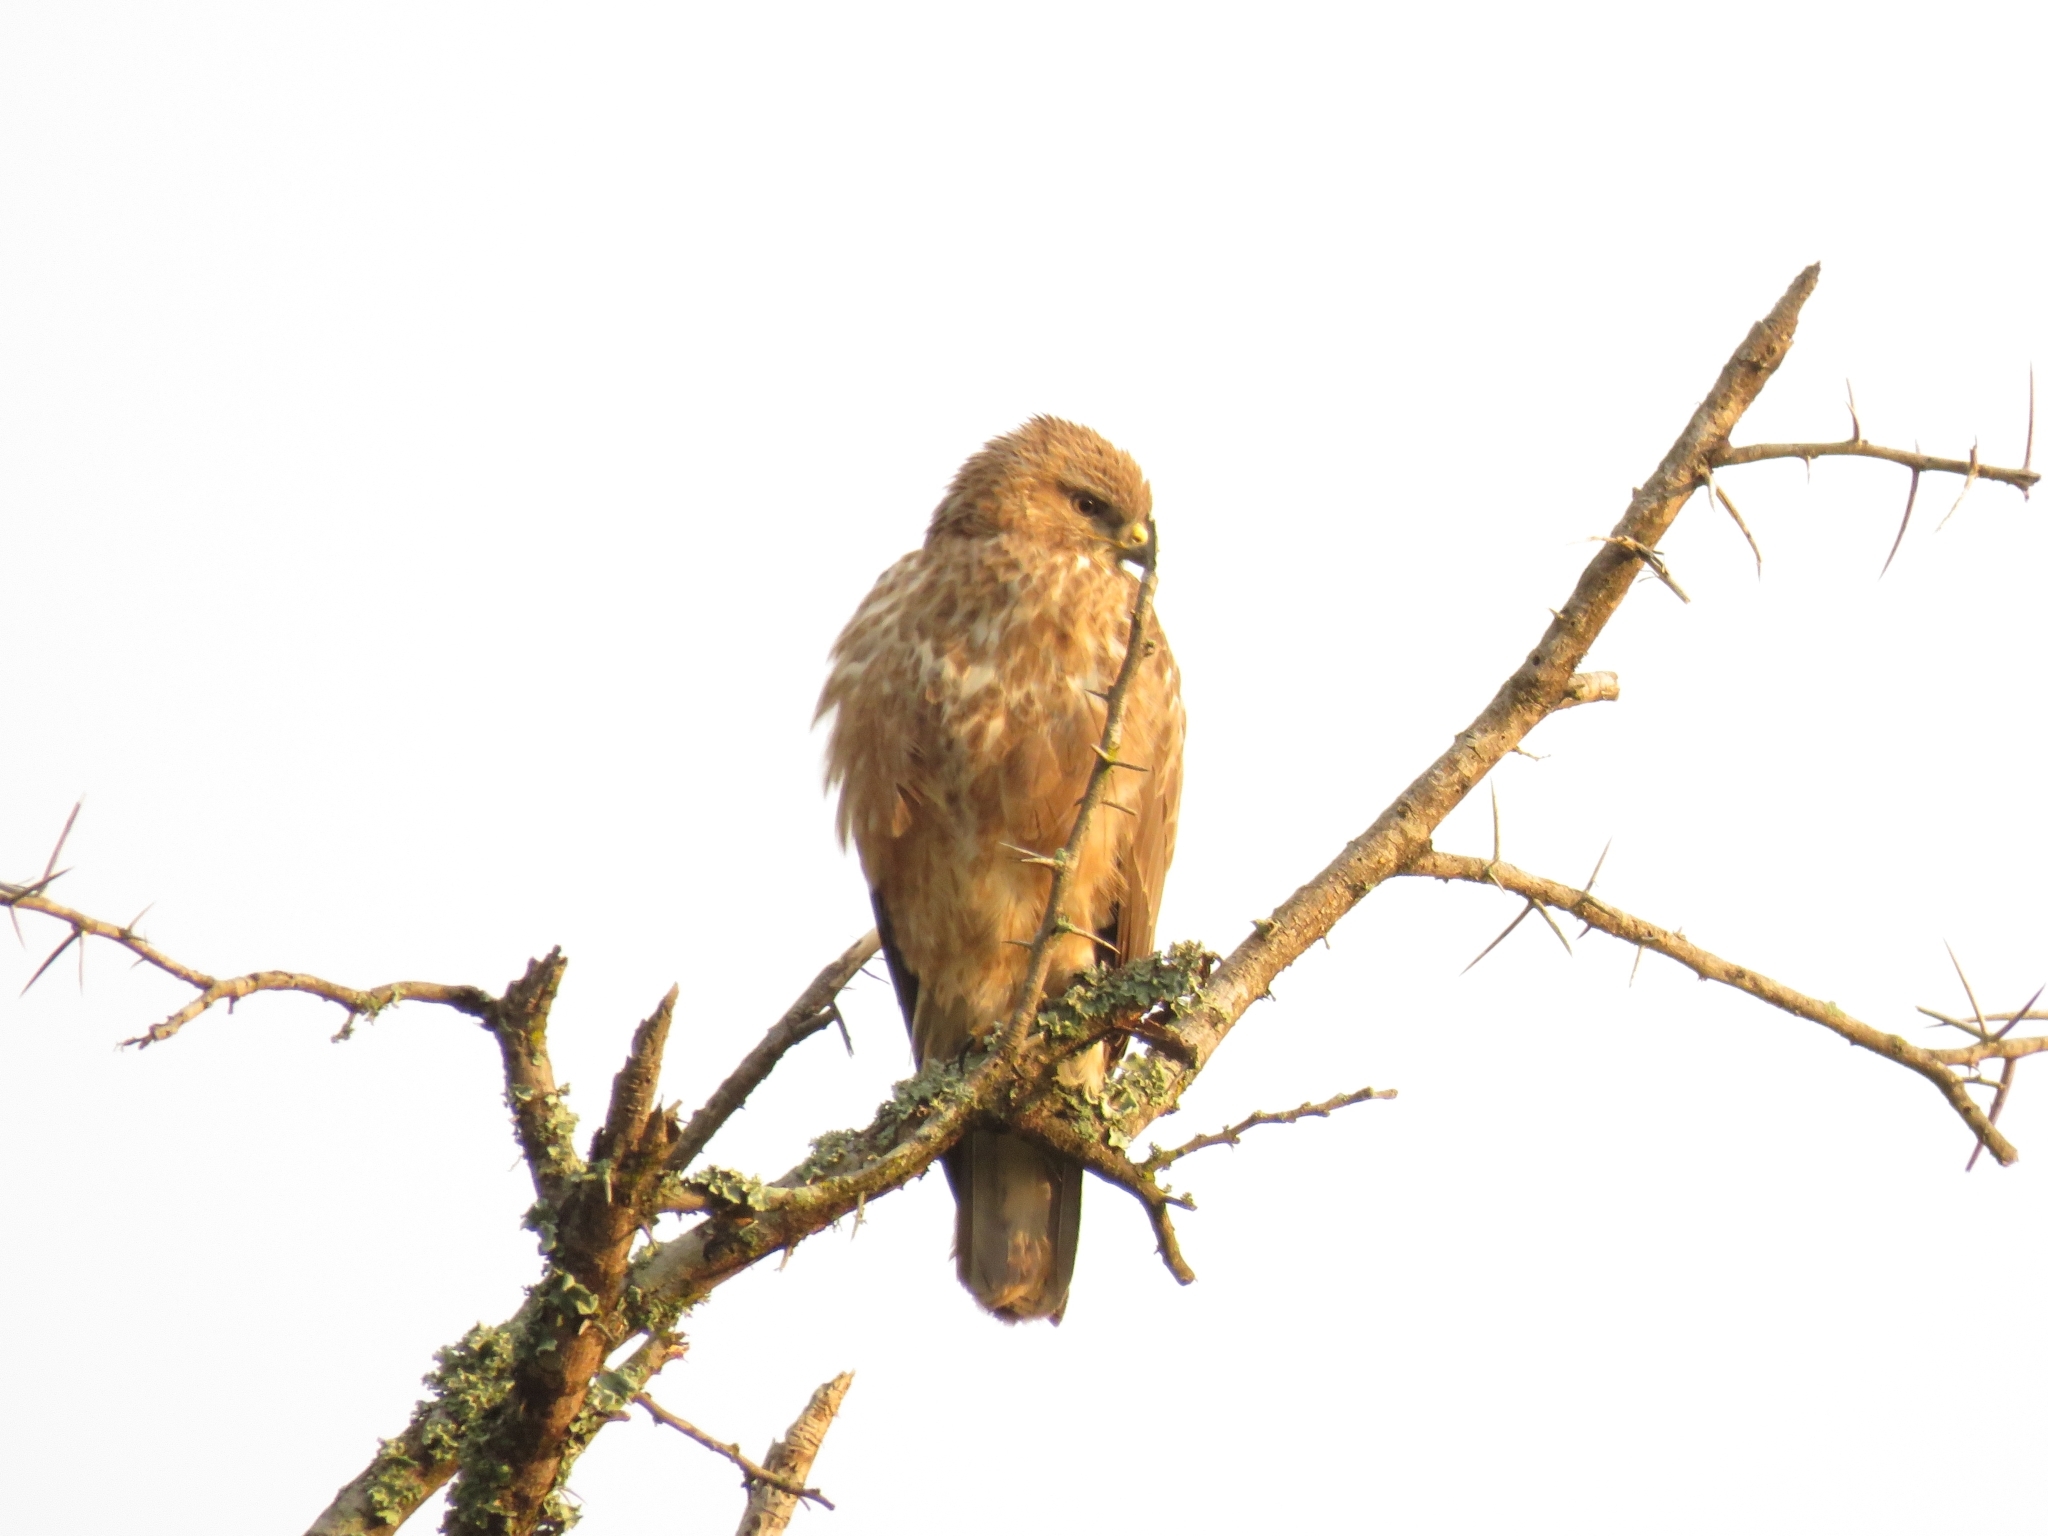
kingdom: Animalia
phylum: Chordata
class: Aves
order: Accipitriformes
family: Accipitridae
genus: Buteo
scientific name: Buteo buteo
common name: Common buzzard
